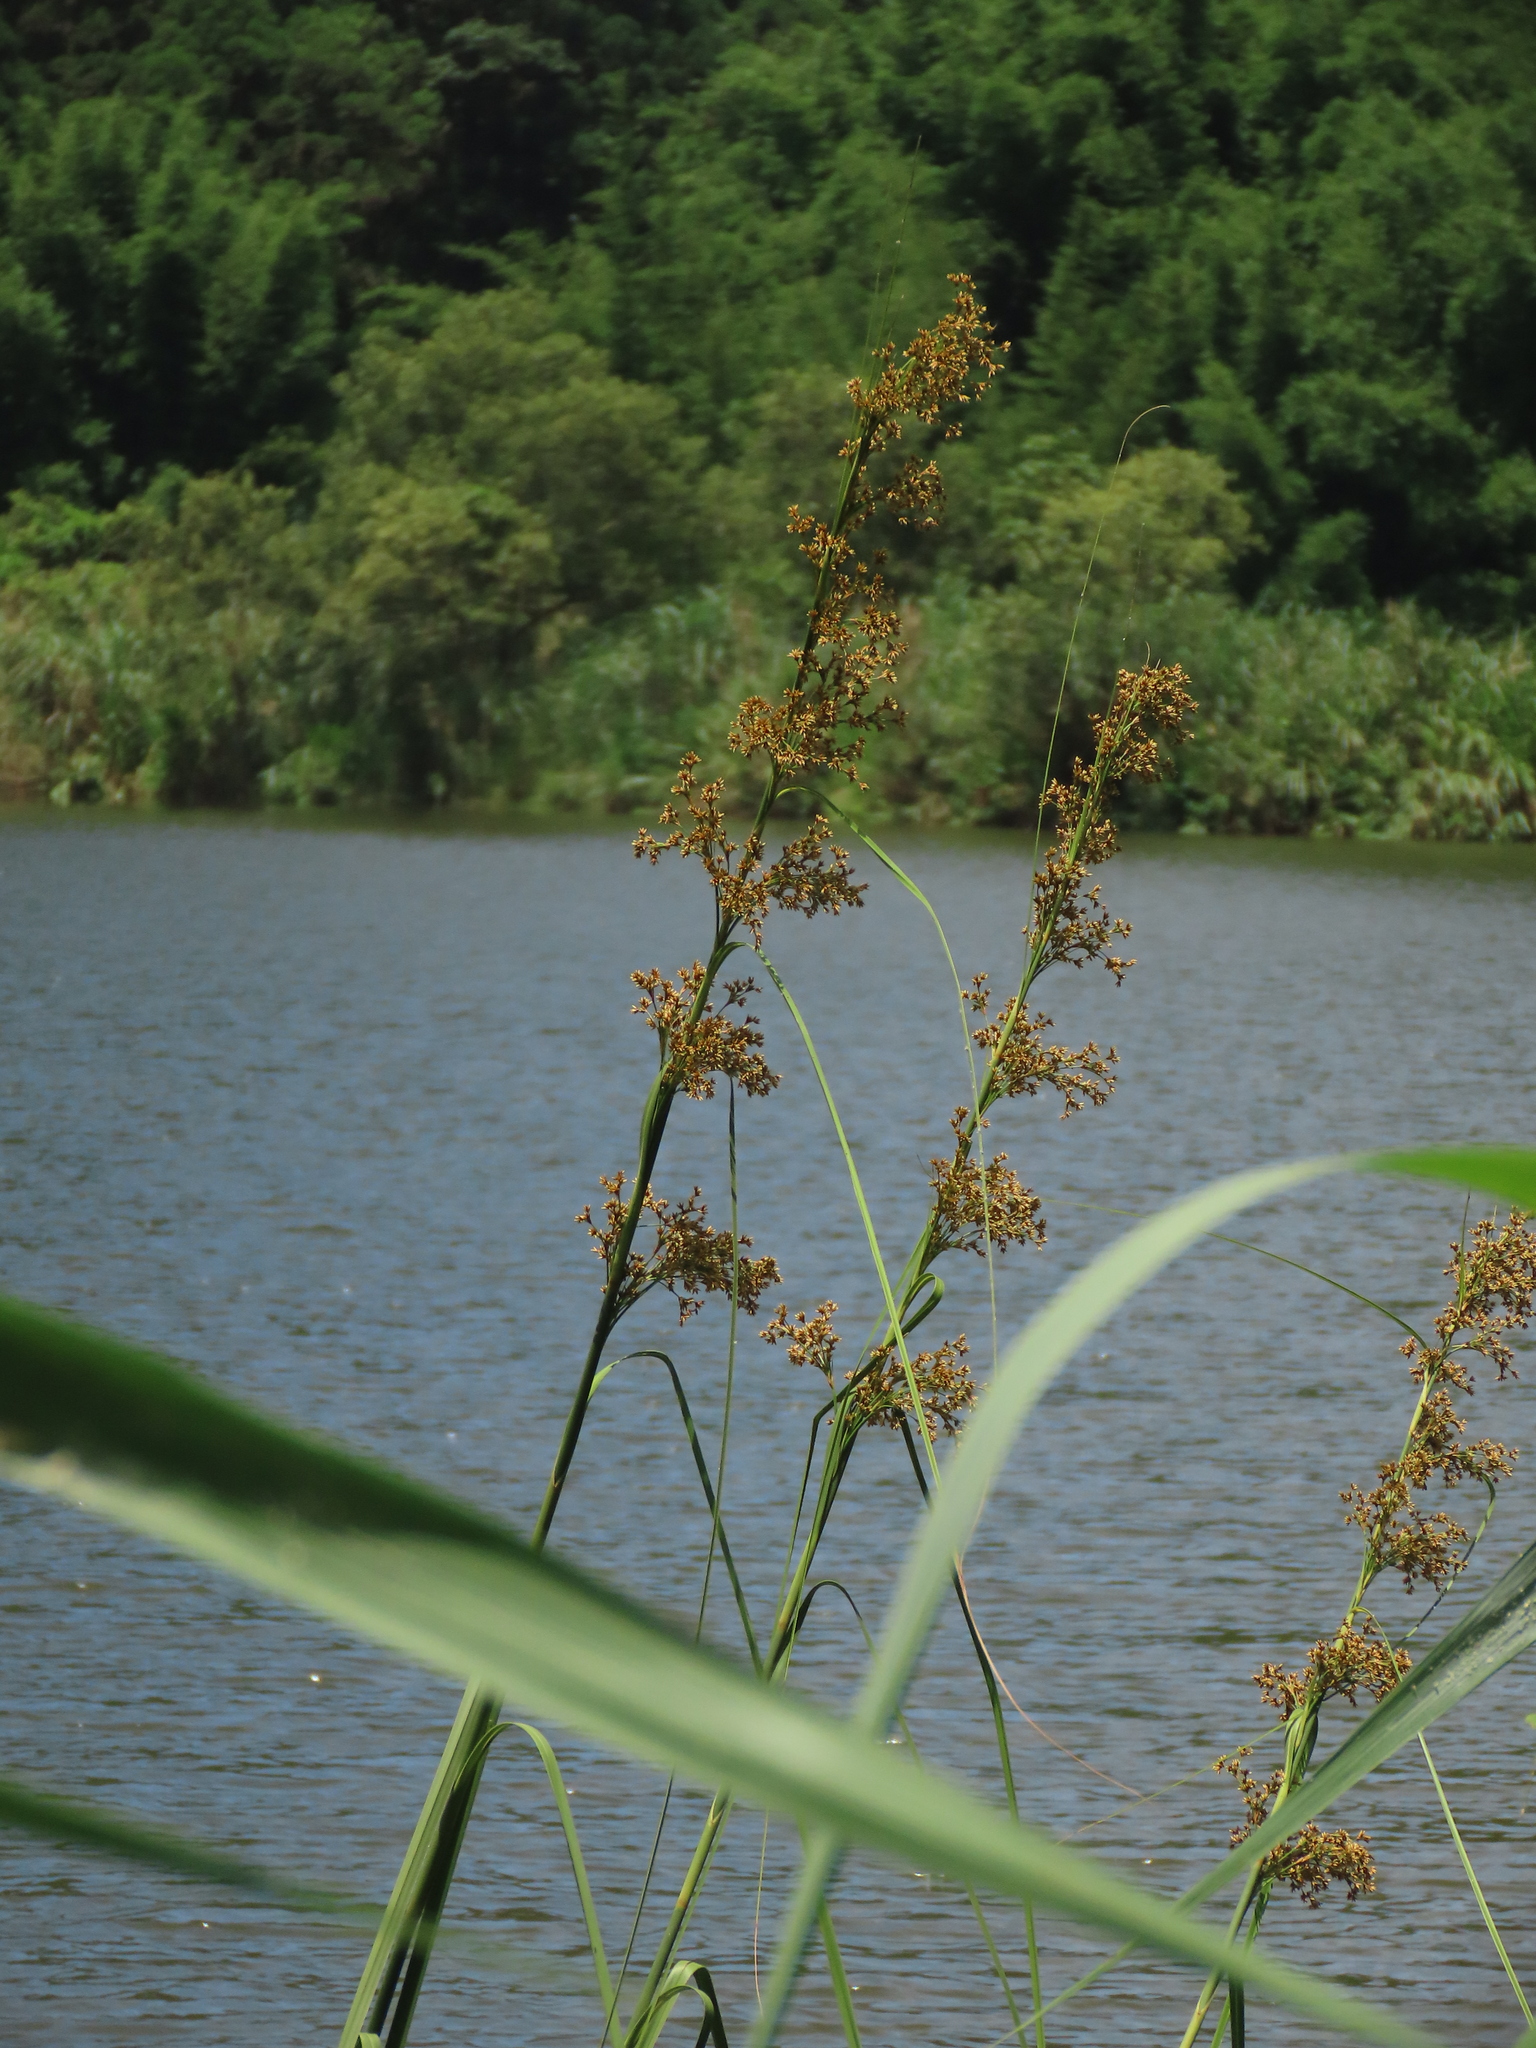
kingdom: Plantae
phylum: Tracheophyta
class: Liliopsida
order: Poales
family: Cyperaceae
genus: Cladium
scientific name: Cladium mariscus
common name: Great fen-sedge
